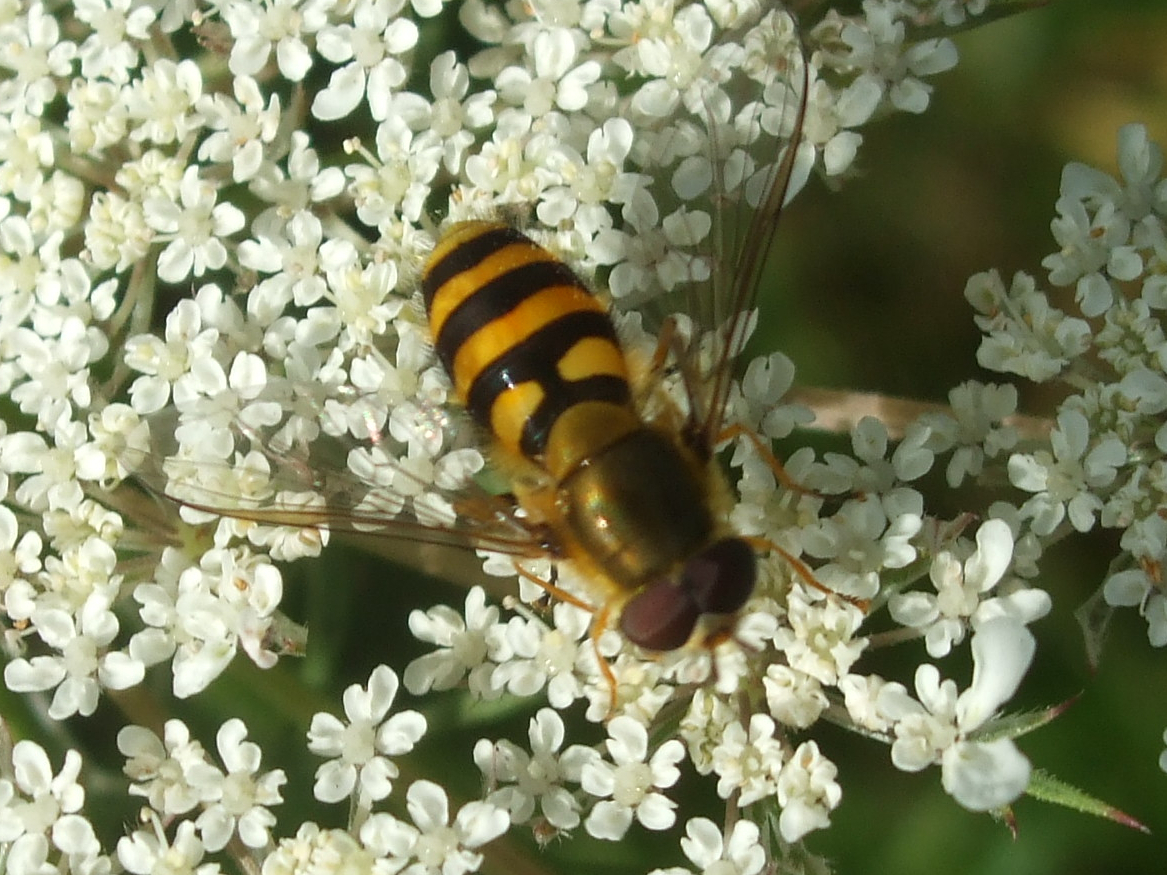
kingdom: Animalia
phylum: Arthropoda
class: Insecta
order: Diptera
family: Syrphidae
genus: Syrphus
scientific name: Syrphus
